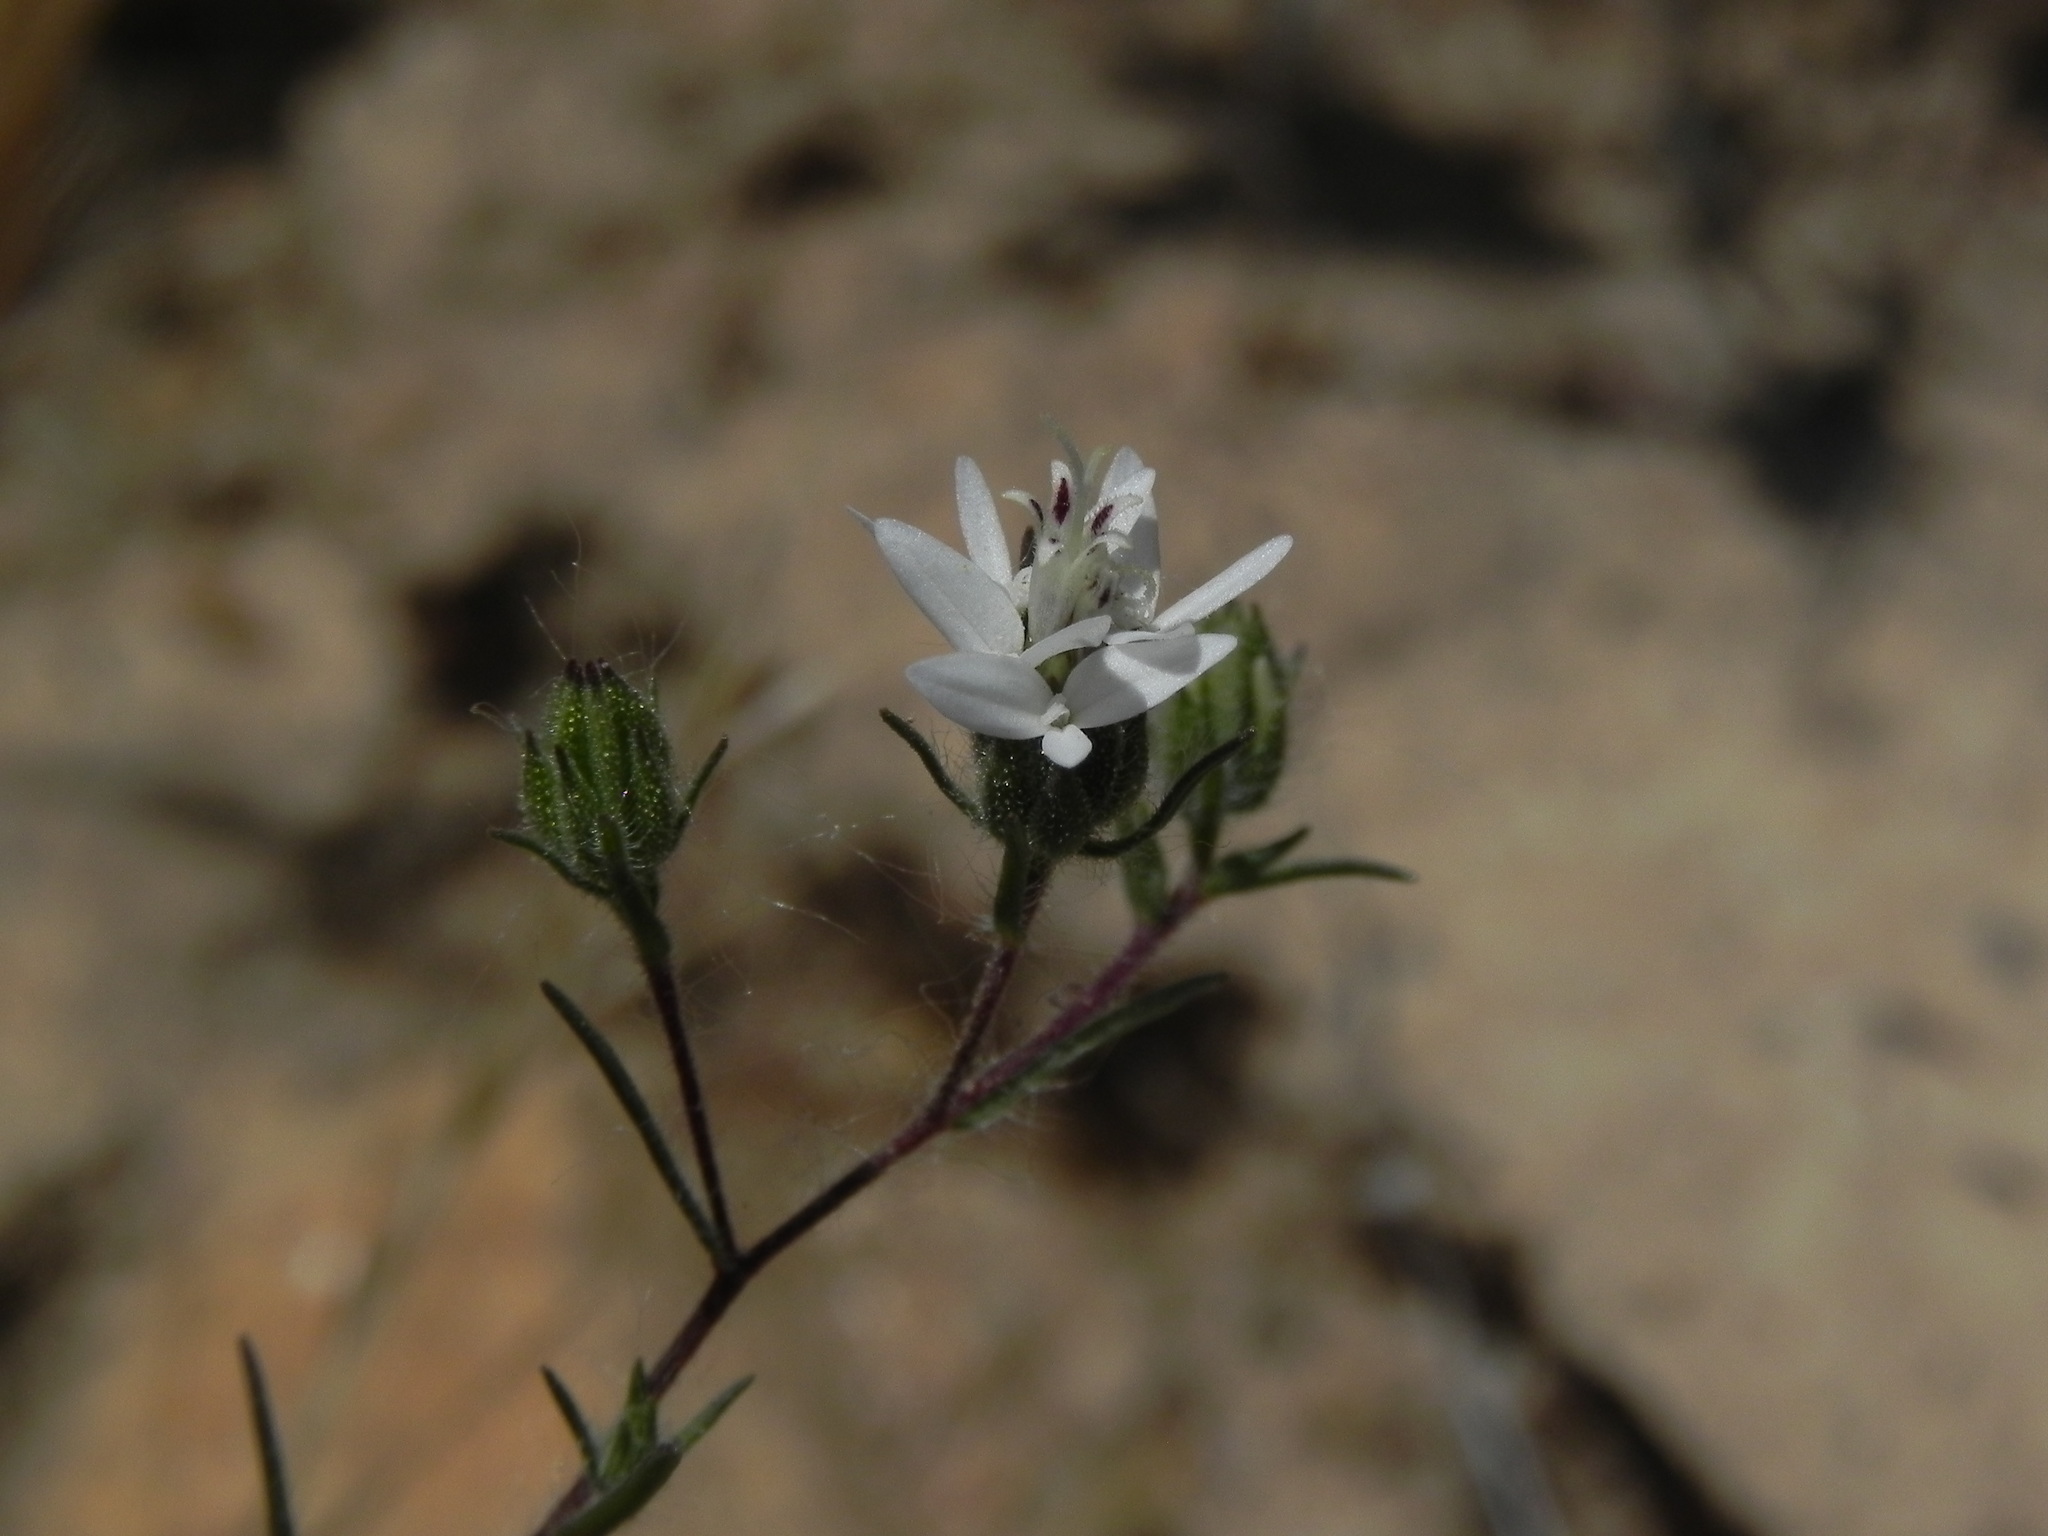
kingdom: Plantae
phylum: Tracheophyta
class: Magnoliopsida
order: Asterales
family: Asteraceae
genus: Osmadenia
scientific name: Osmadenia tenella
